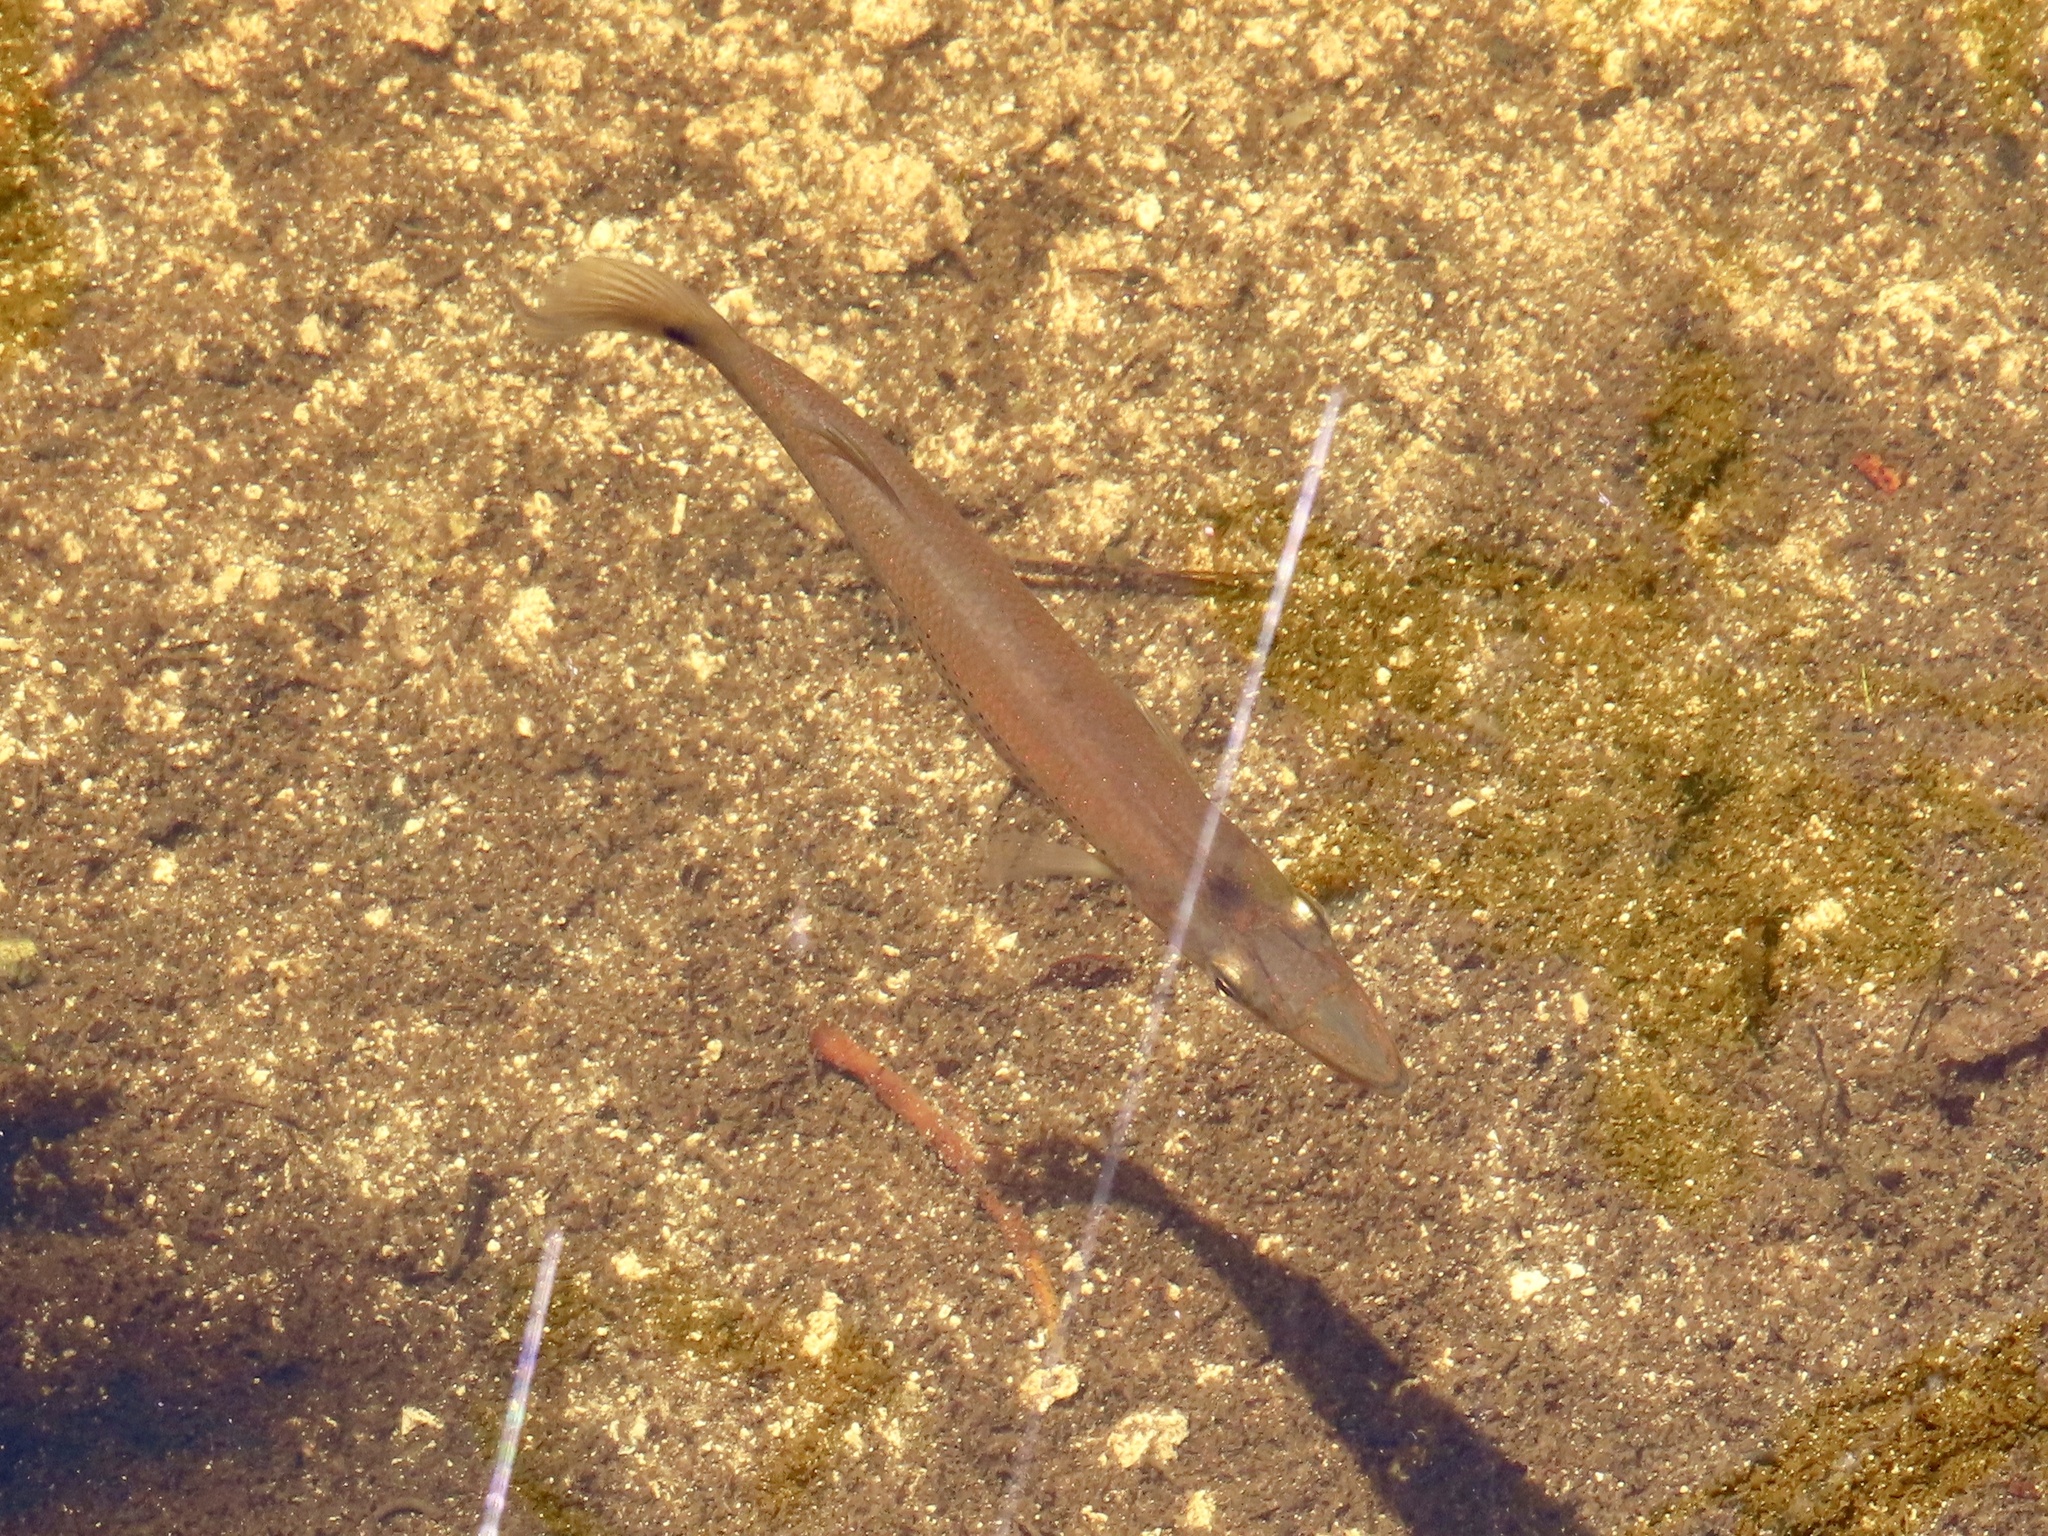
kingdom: Animalia
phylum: Chordata
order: Cyprinodontiformes
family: Poeciliidae
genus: Belonesox
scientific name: Belonesox belizanus
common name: Pike killifish
